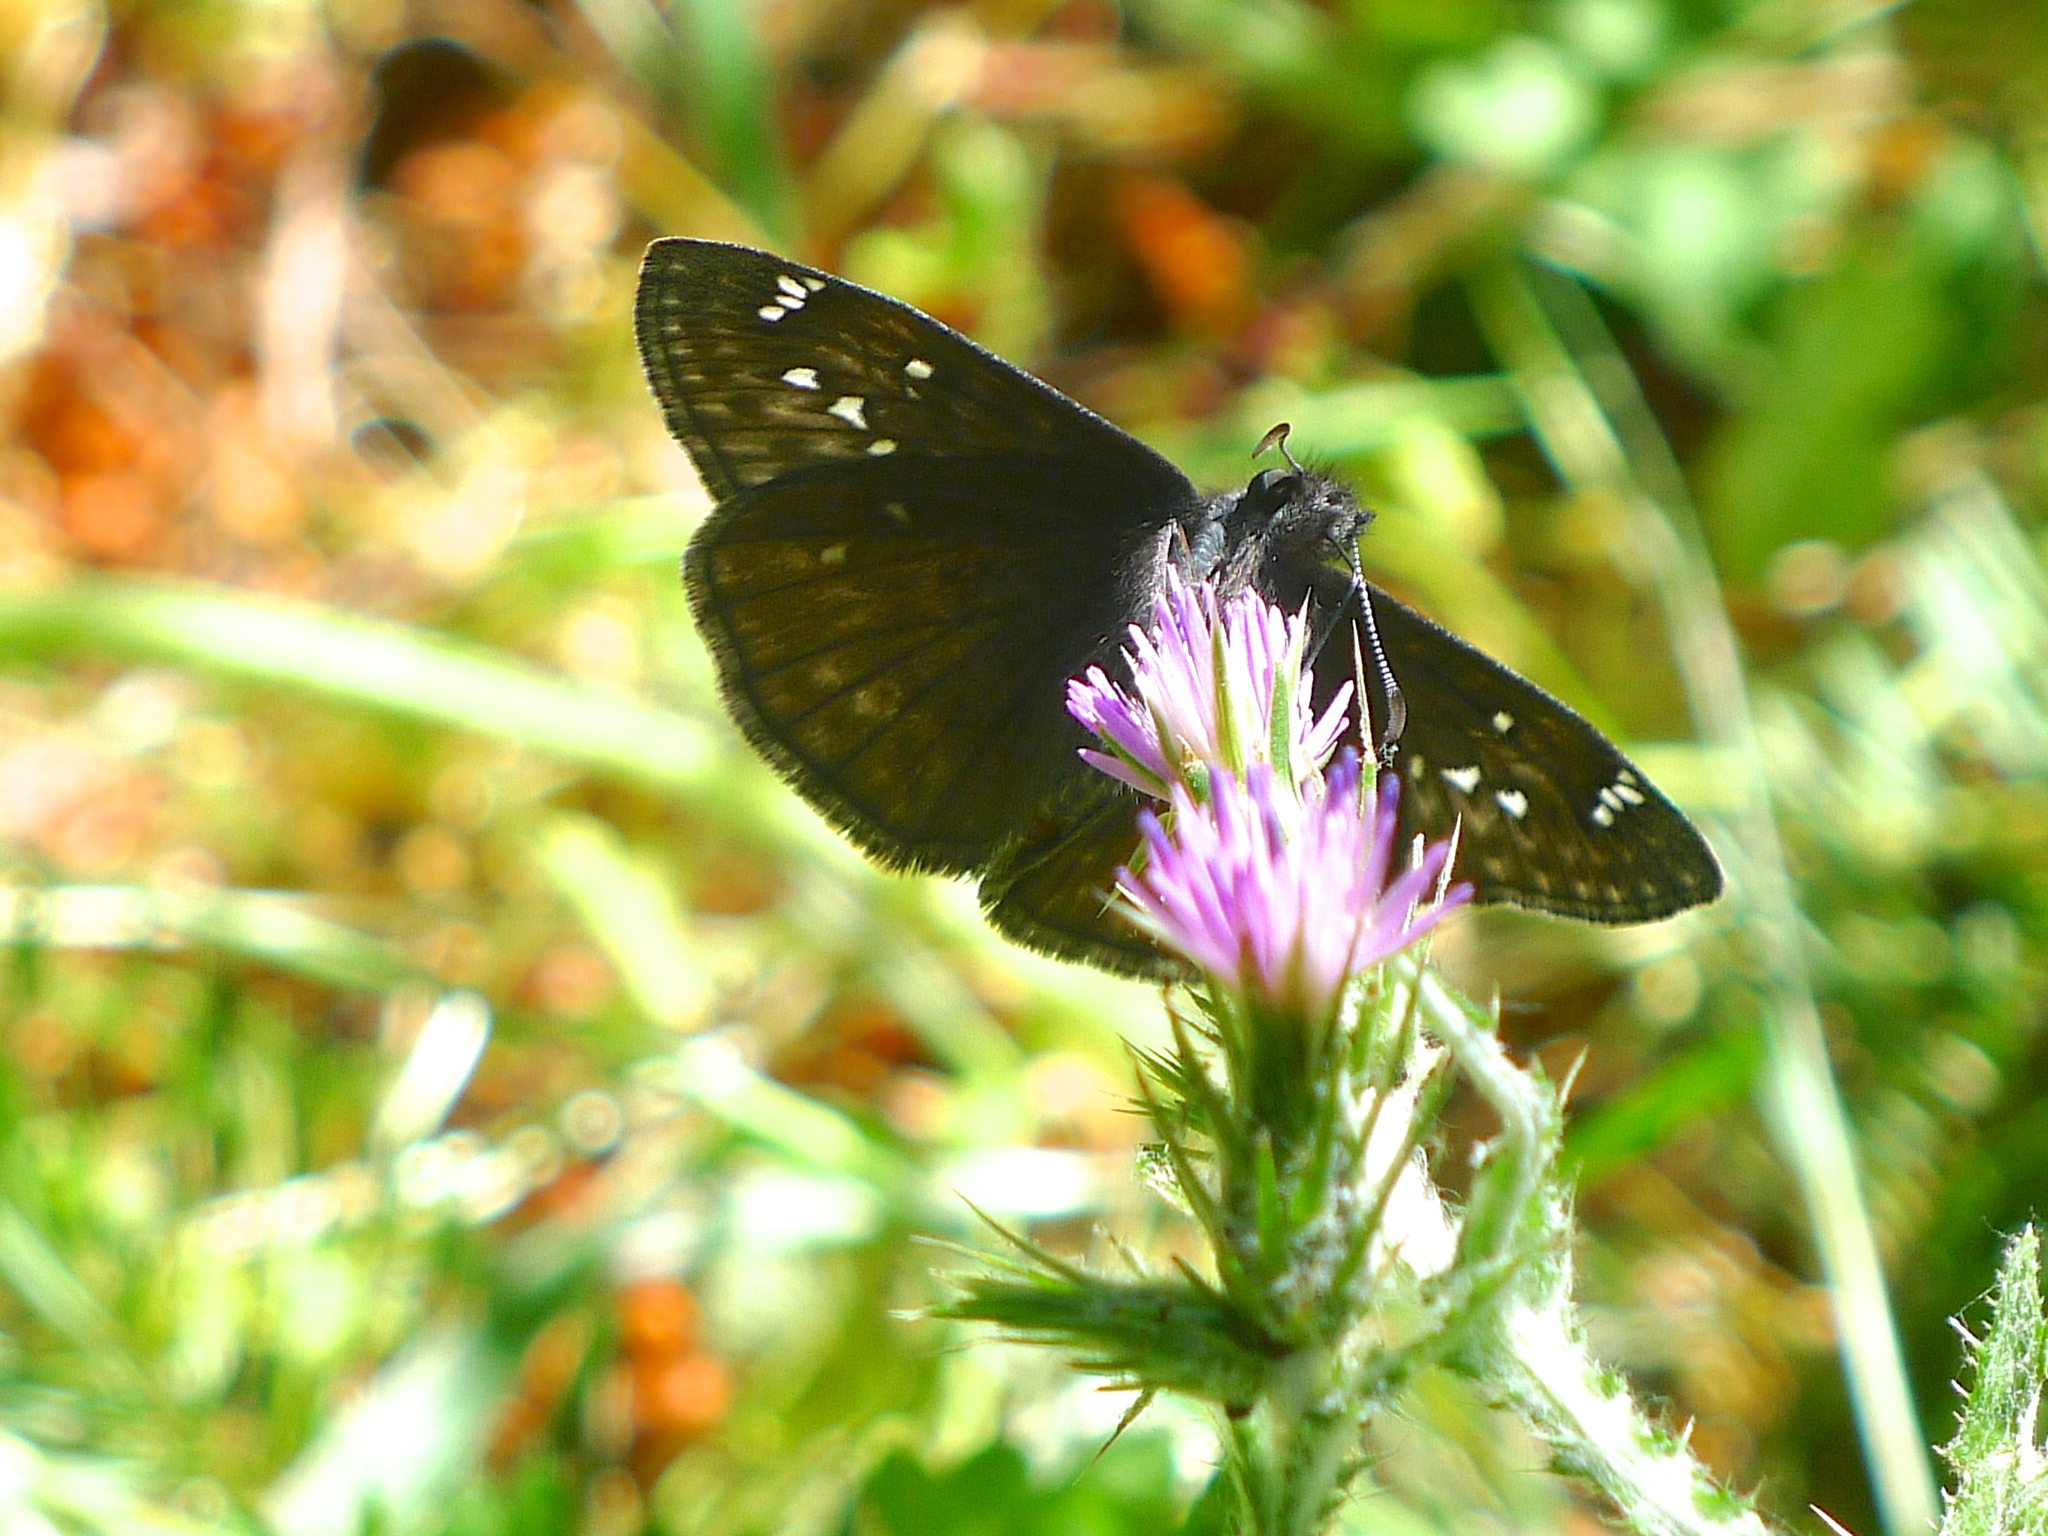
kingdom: Animalia
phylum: Arthropoda
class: Insecta
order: Lepidoptera
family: Hesperiidae
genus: Erynnis
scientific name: Erynnis propertius
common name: Propertius duskywing
